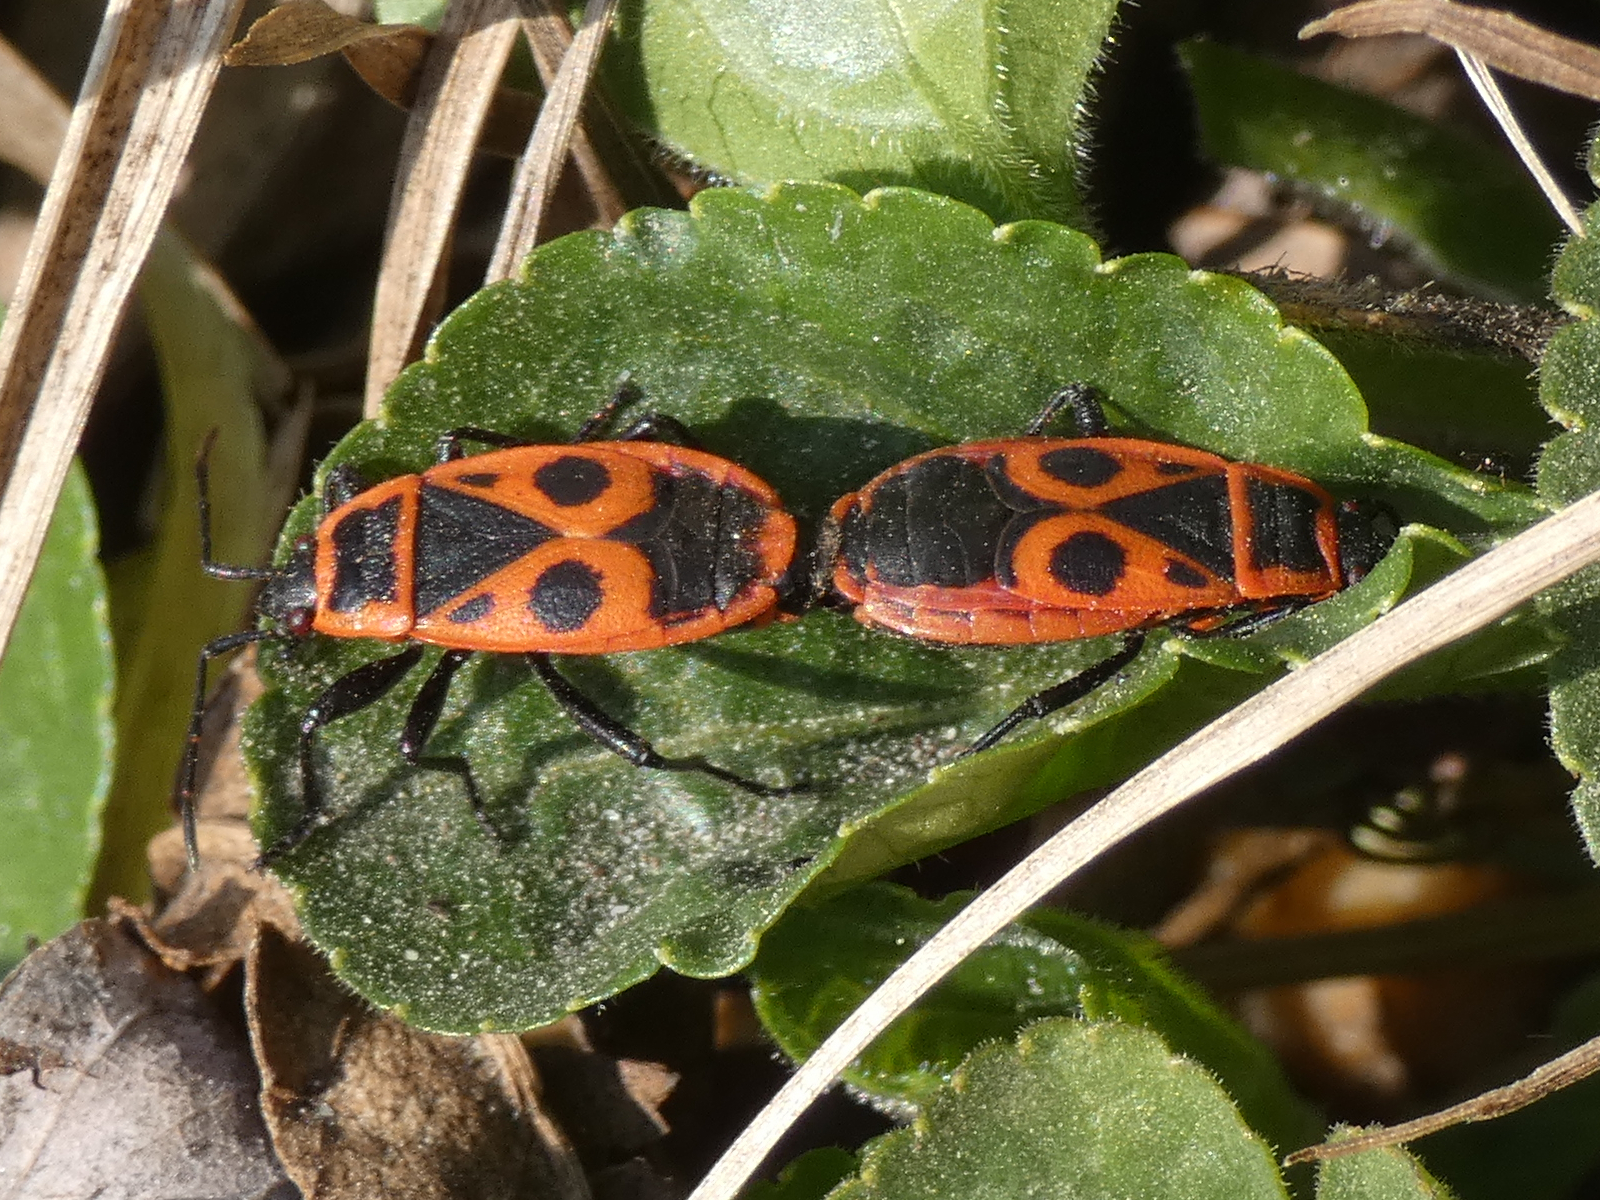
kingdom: Animalia
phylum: Arthropoda
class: Insecta
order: Hemiptera
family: Pyrrhocoridae
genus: Pyrrhocoris
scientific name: Pyrrhocoris apterus
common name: Firebug
